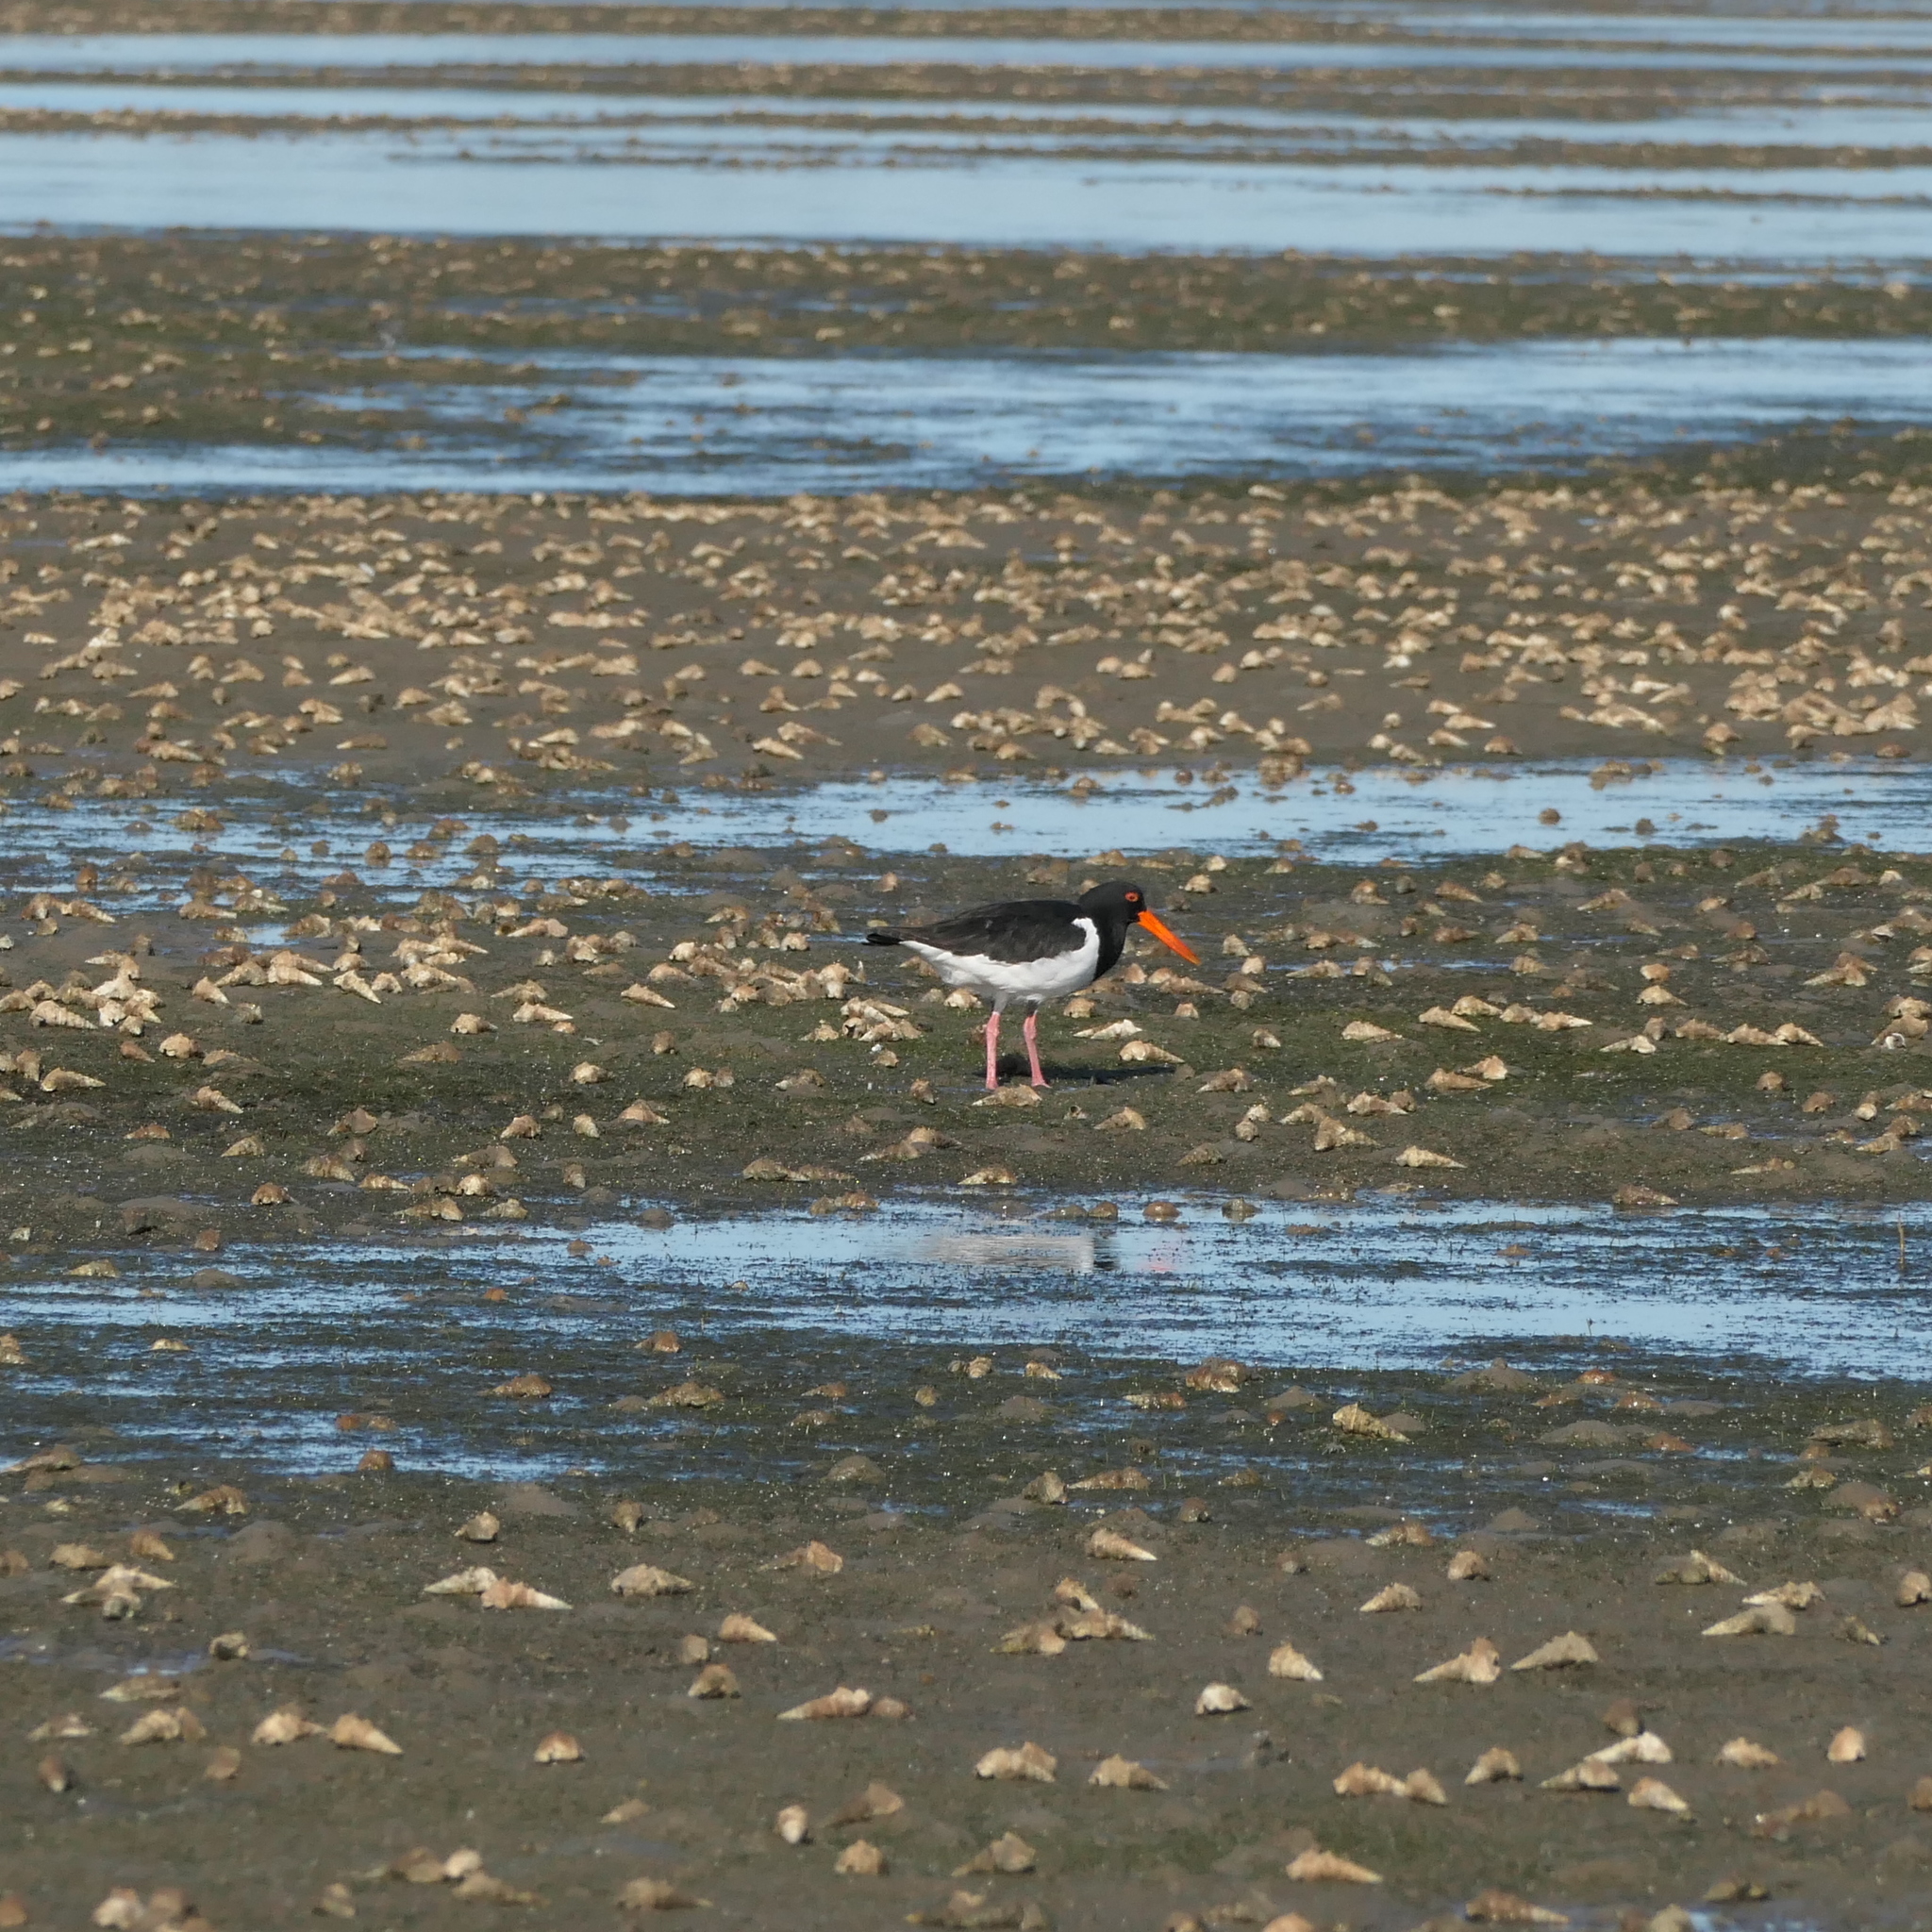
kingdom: Animalia
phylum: Chordata
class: Aves
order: Charadriiformes
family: Haematopodidae
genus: Haematopus
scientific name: Haematopus longirostris
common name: Pied oystercatcher
